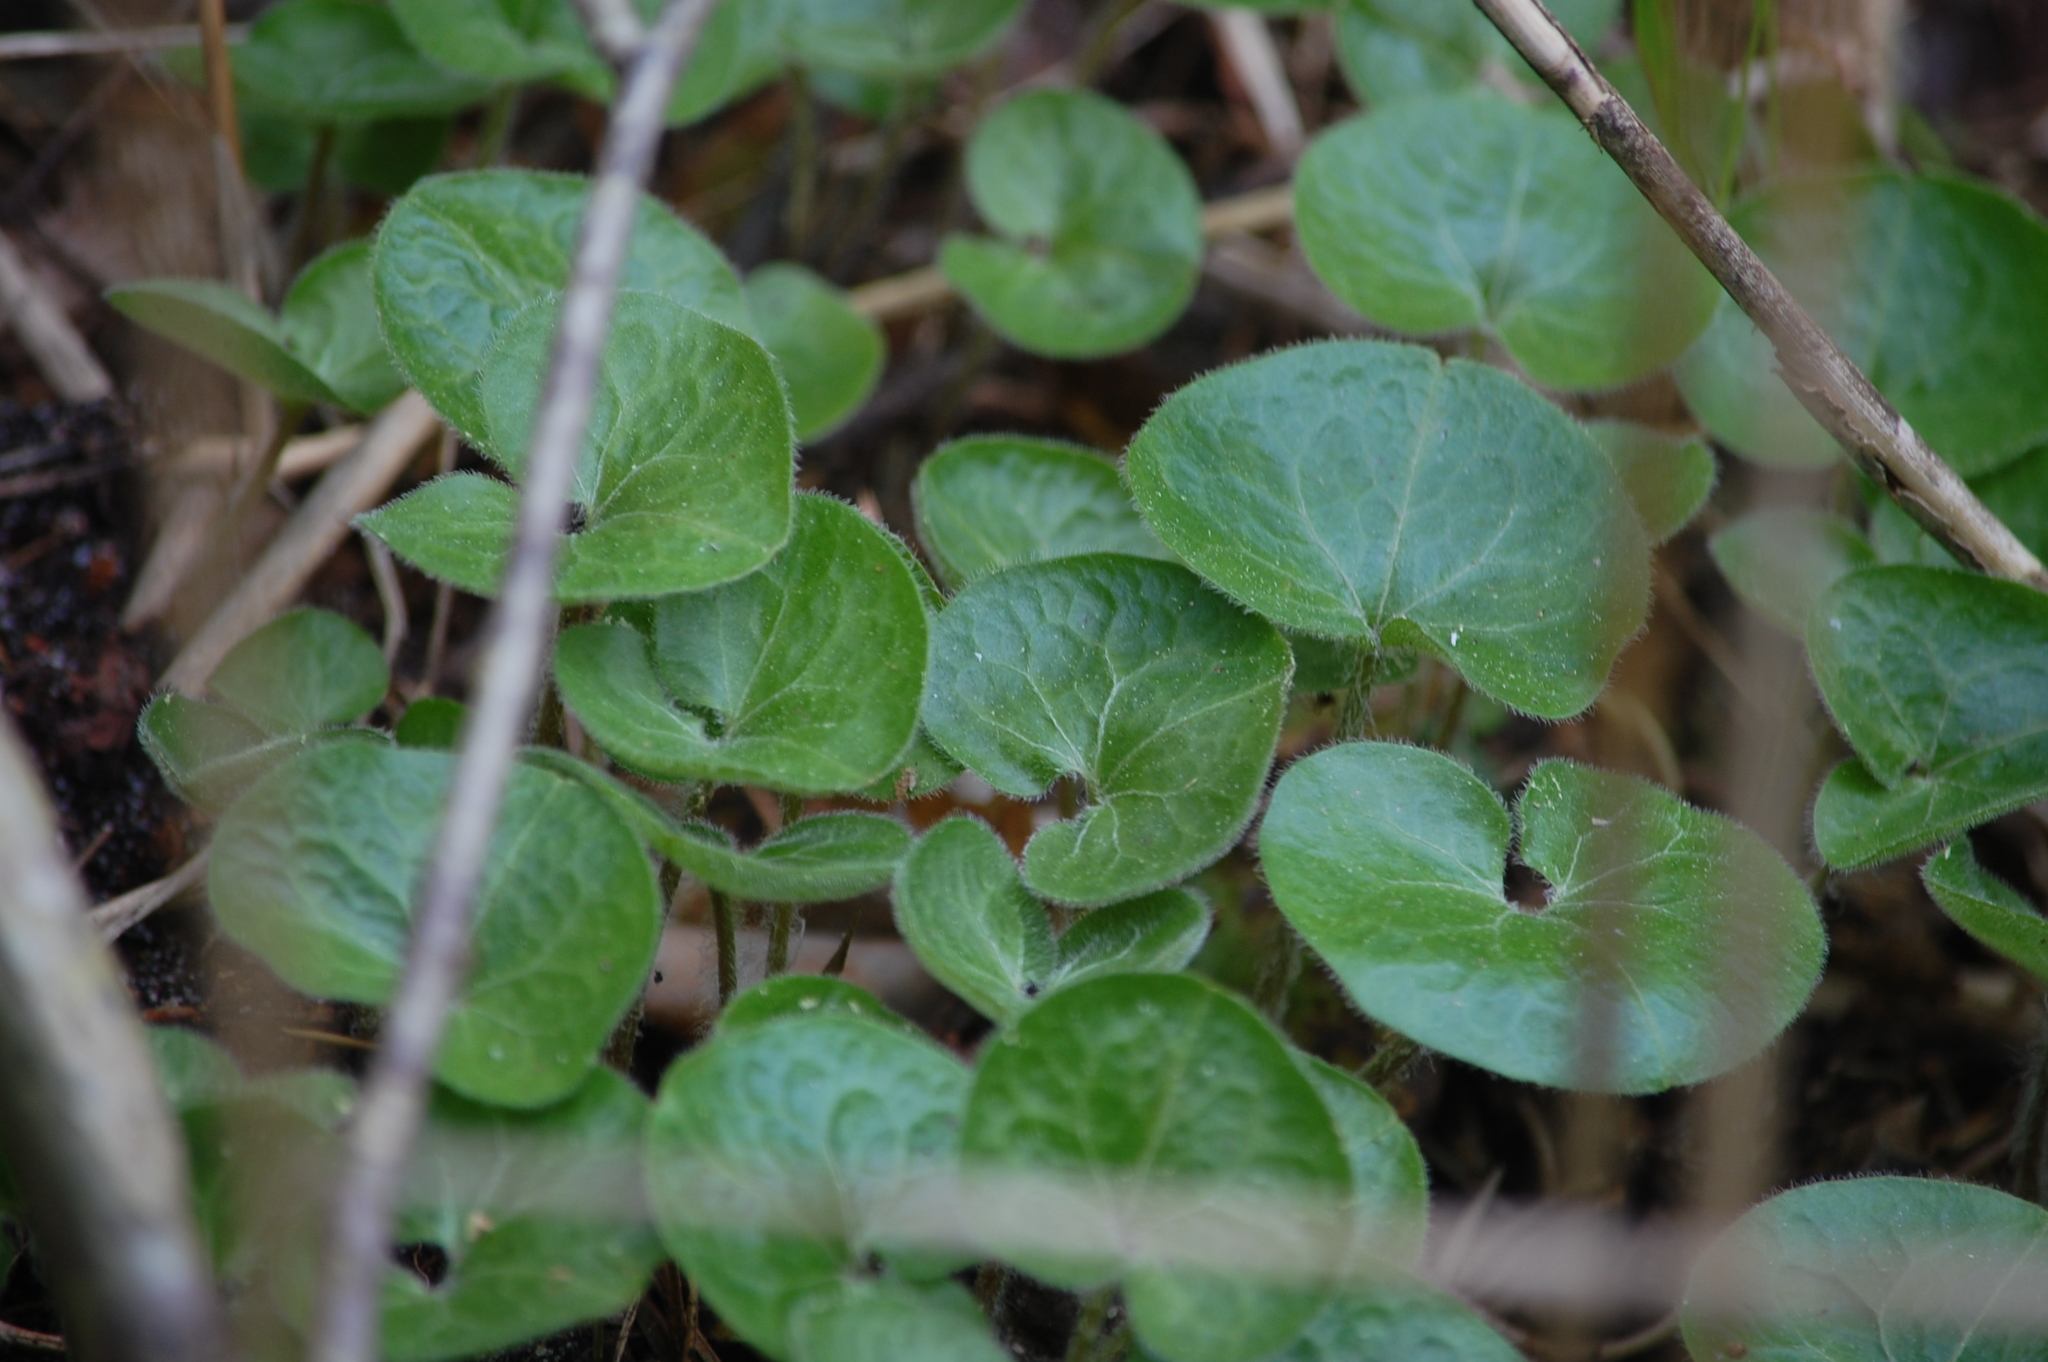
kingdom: Plantae
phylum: Tracheophyta
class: Magnoliopsida
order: Piperales
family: Aristolochiaceae
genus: Asarum
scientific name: Asarum europaeum
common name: Asarabacca
